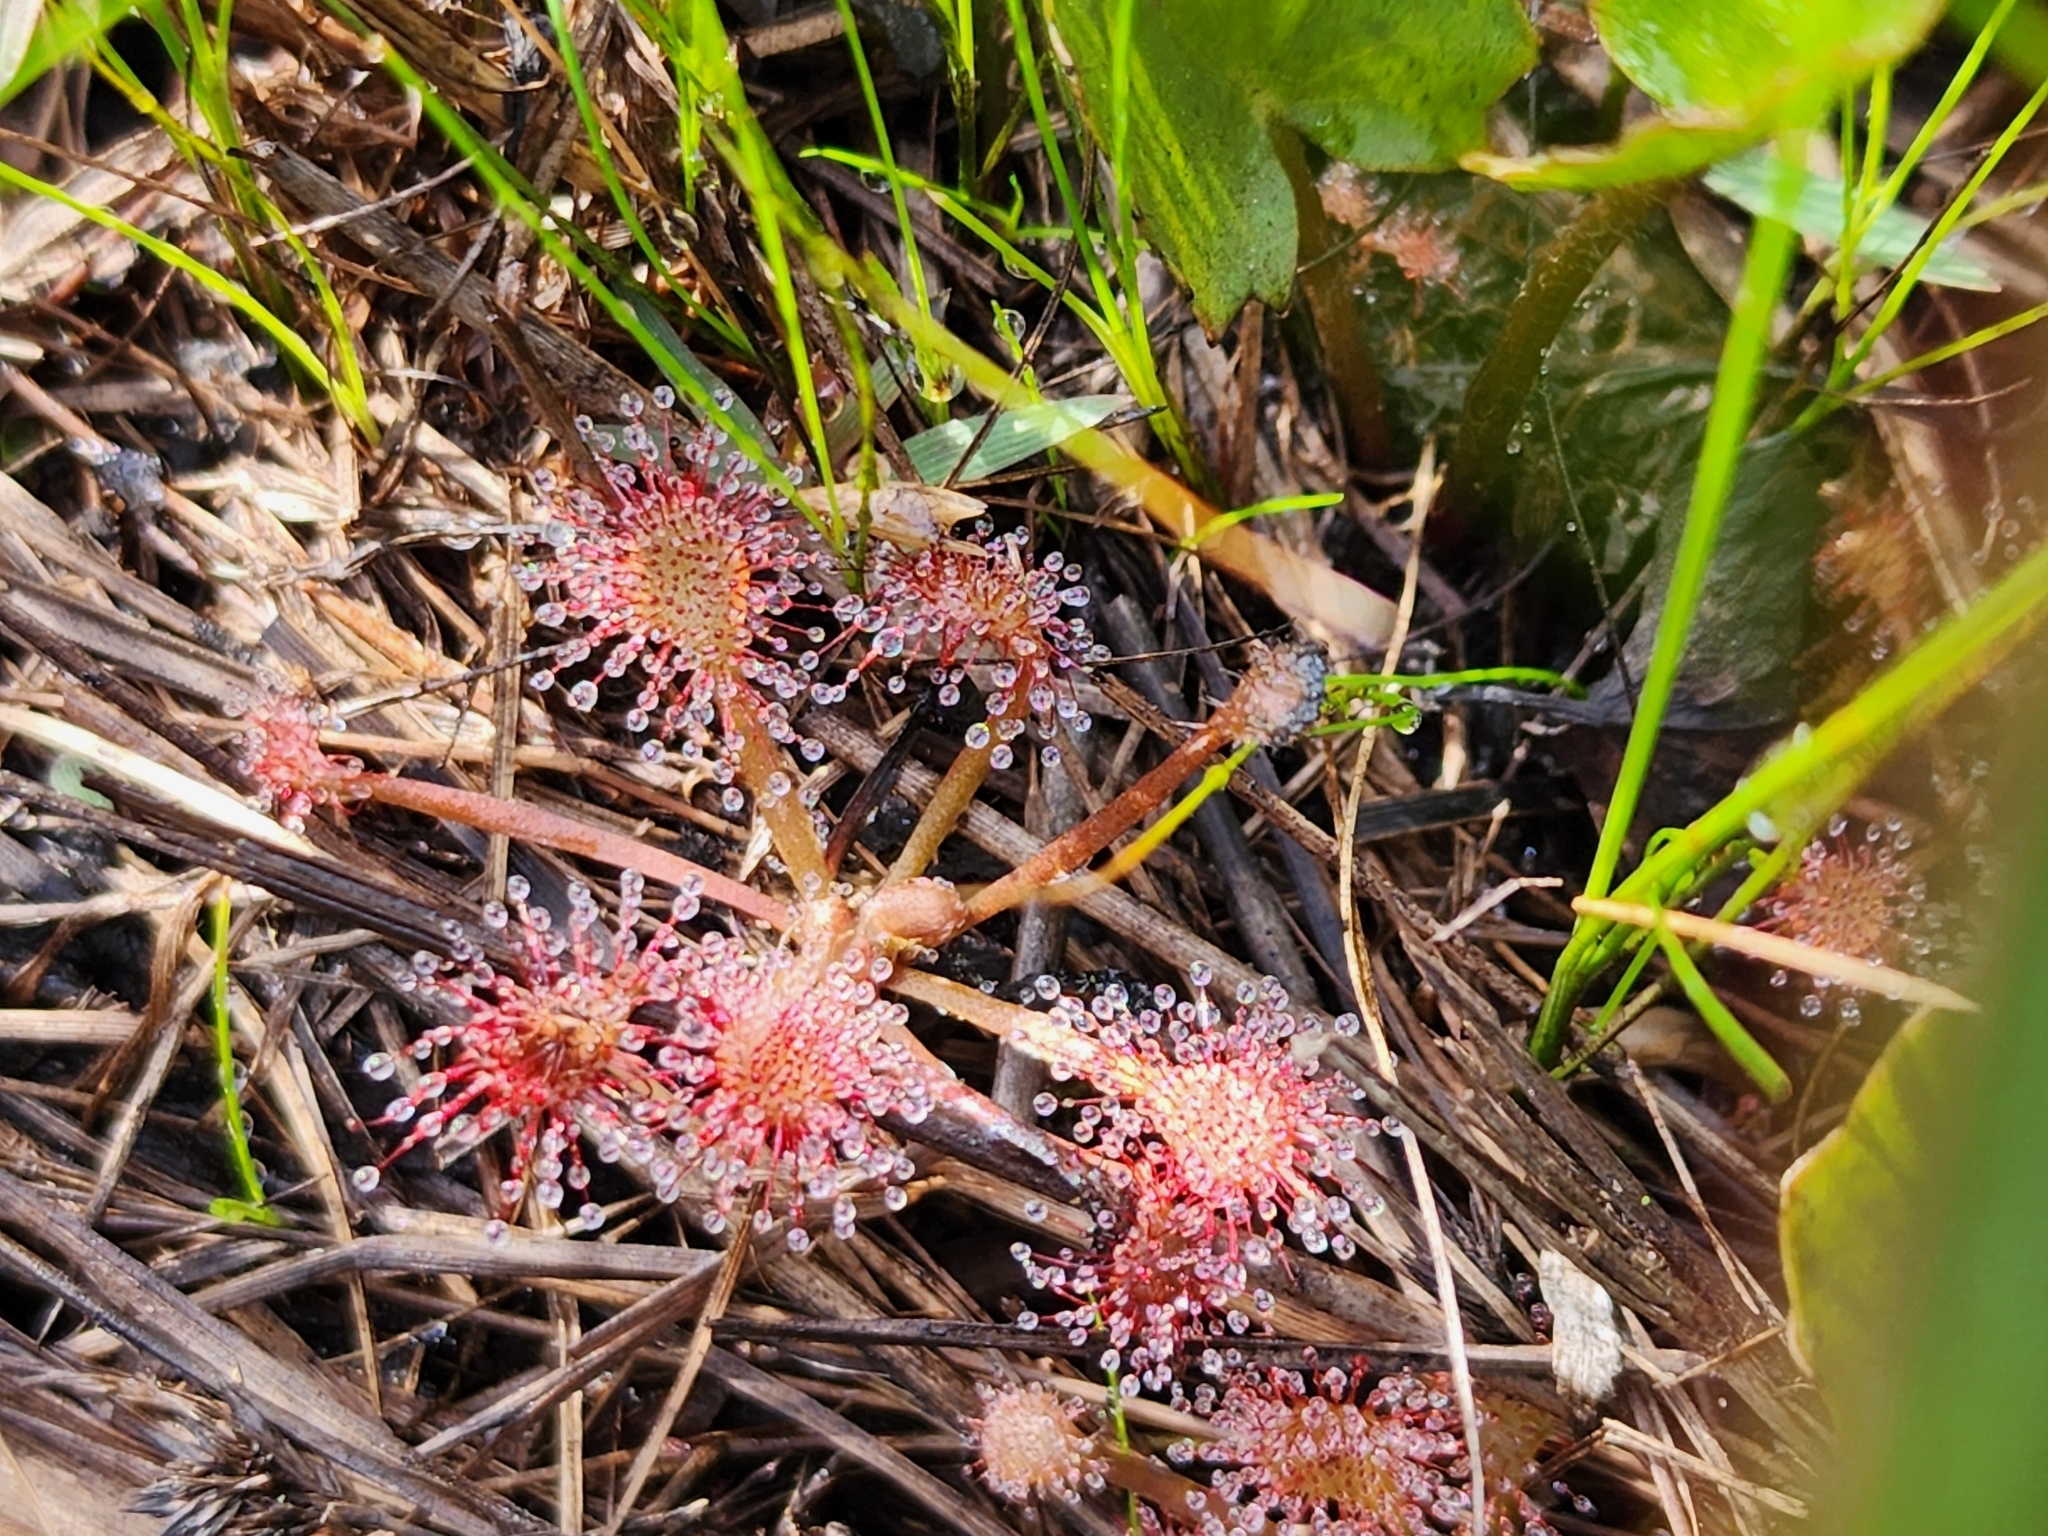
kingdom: Plantae
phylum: Tracheophyta
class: Magnoliopsida
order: Caryophyllales
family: Droseraceae
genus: Drosera
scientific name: Drosera capillaris
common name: Pink sundew
